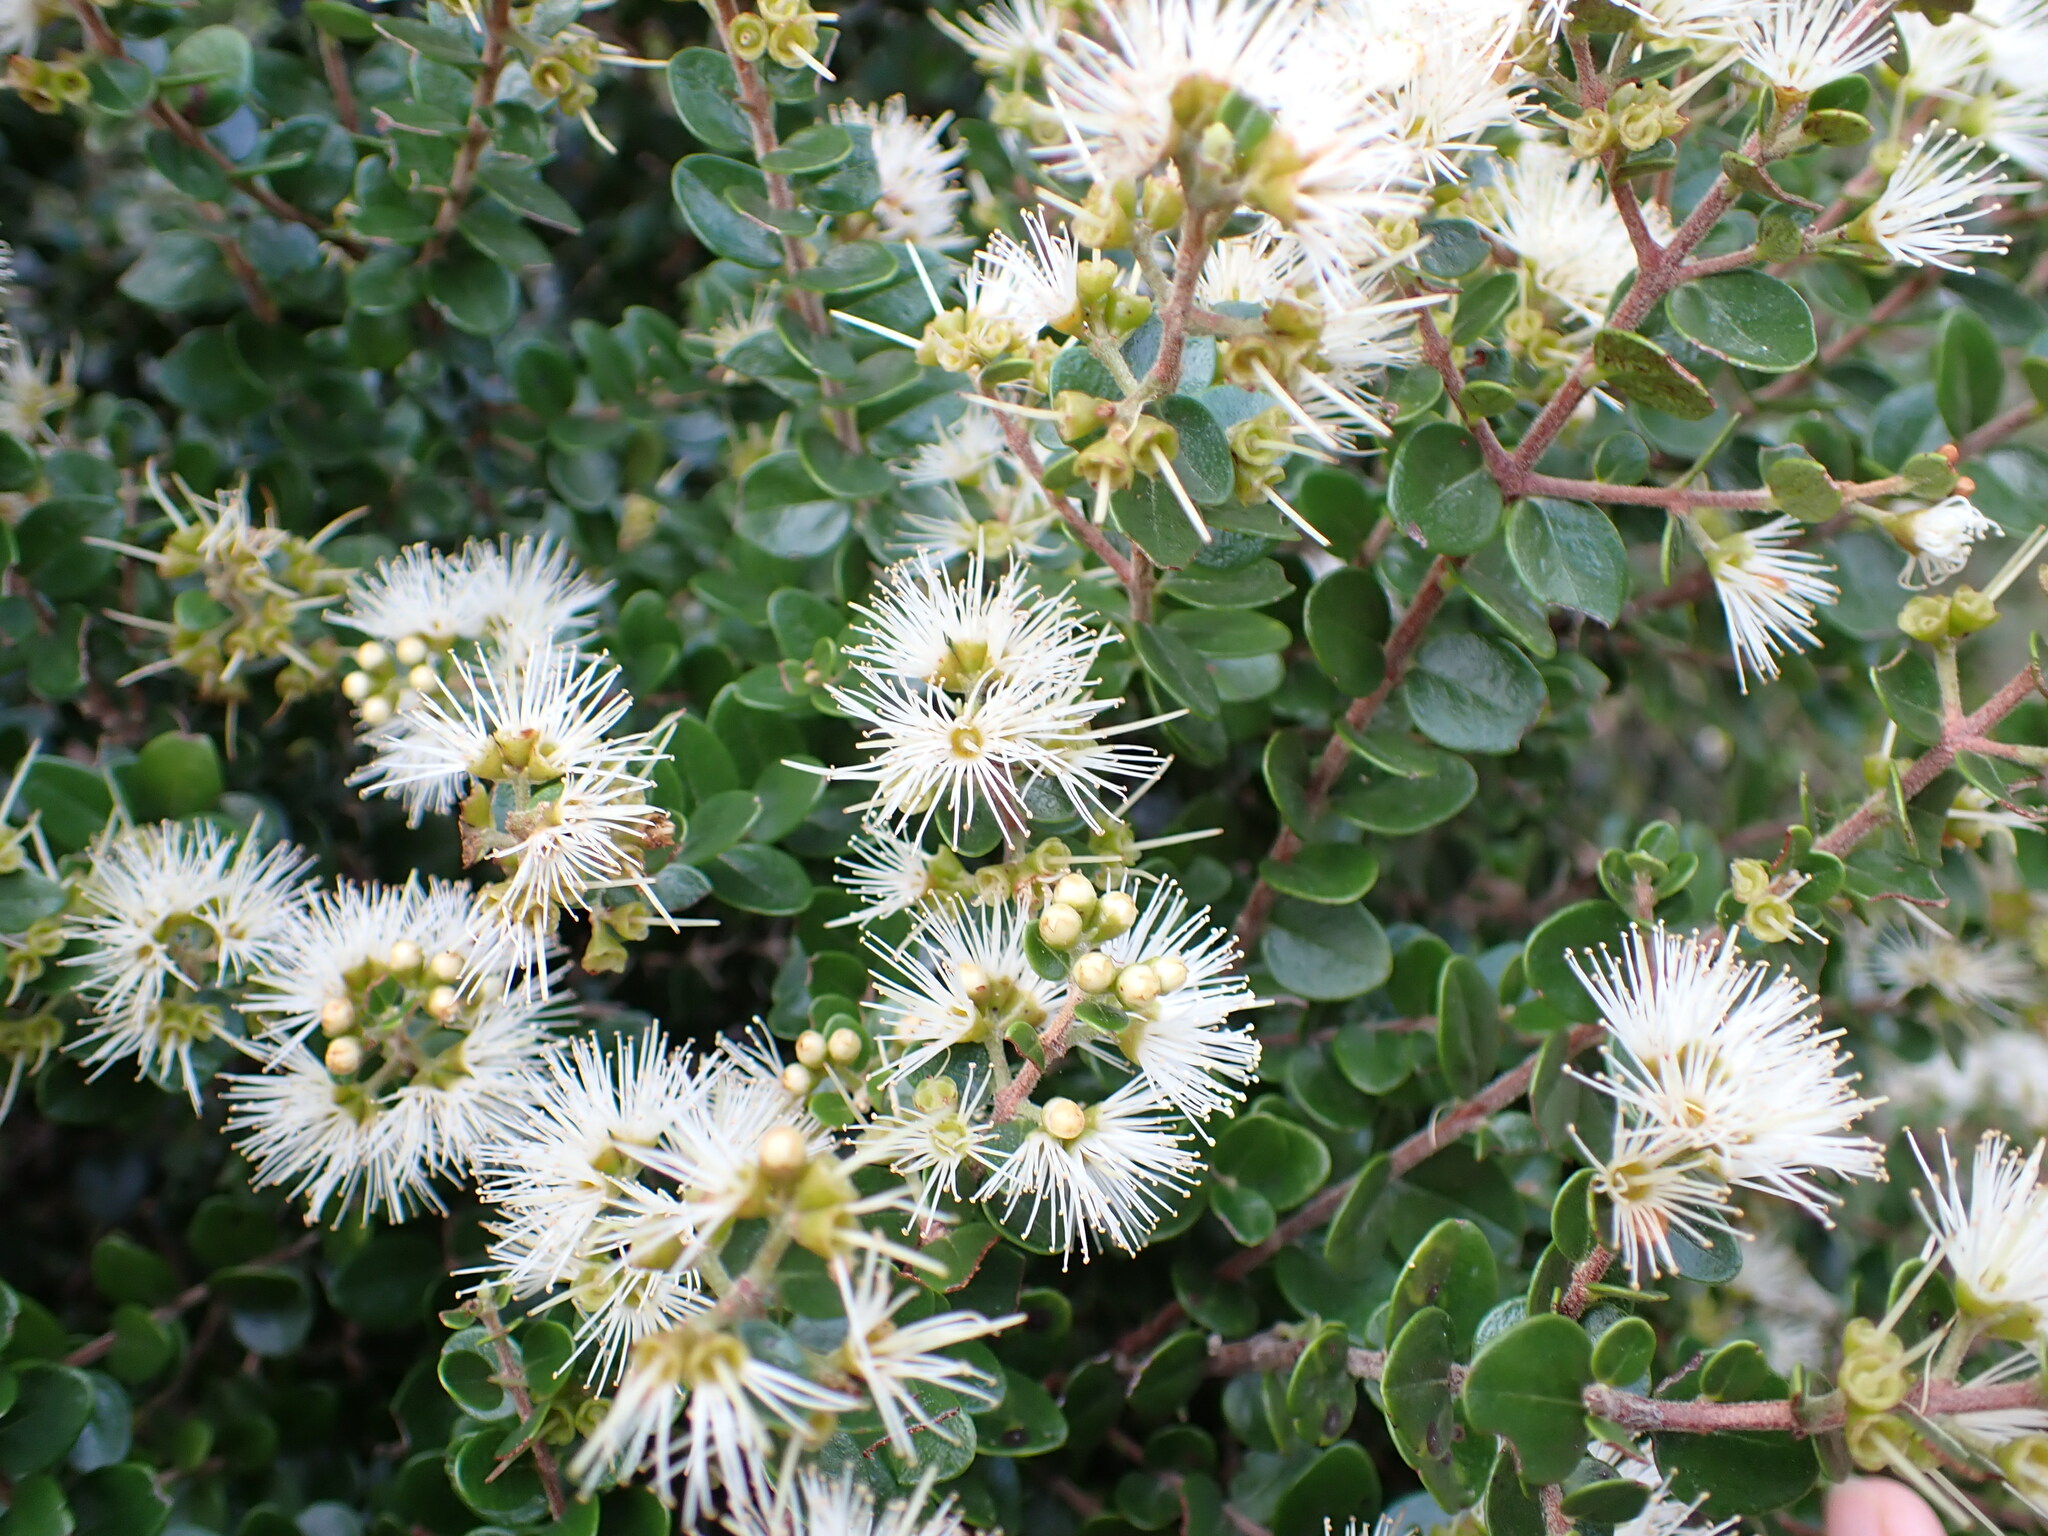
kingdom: Plantae
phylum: Tracheophyta
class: Magnoliopsida
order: Myrtales
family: Myrtaceae
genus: Metrosideros
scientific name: Metrosideros perforata
